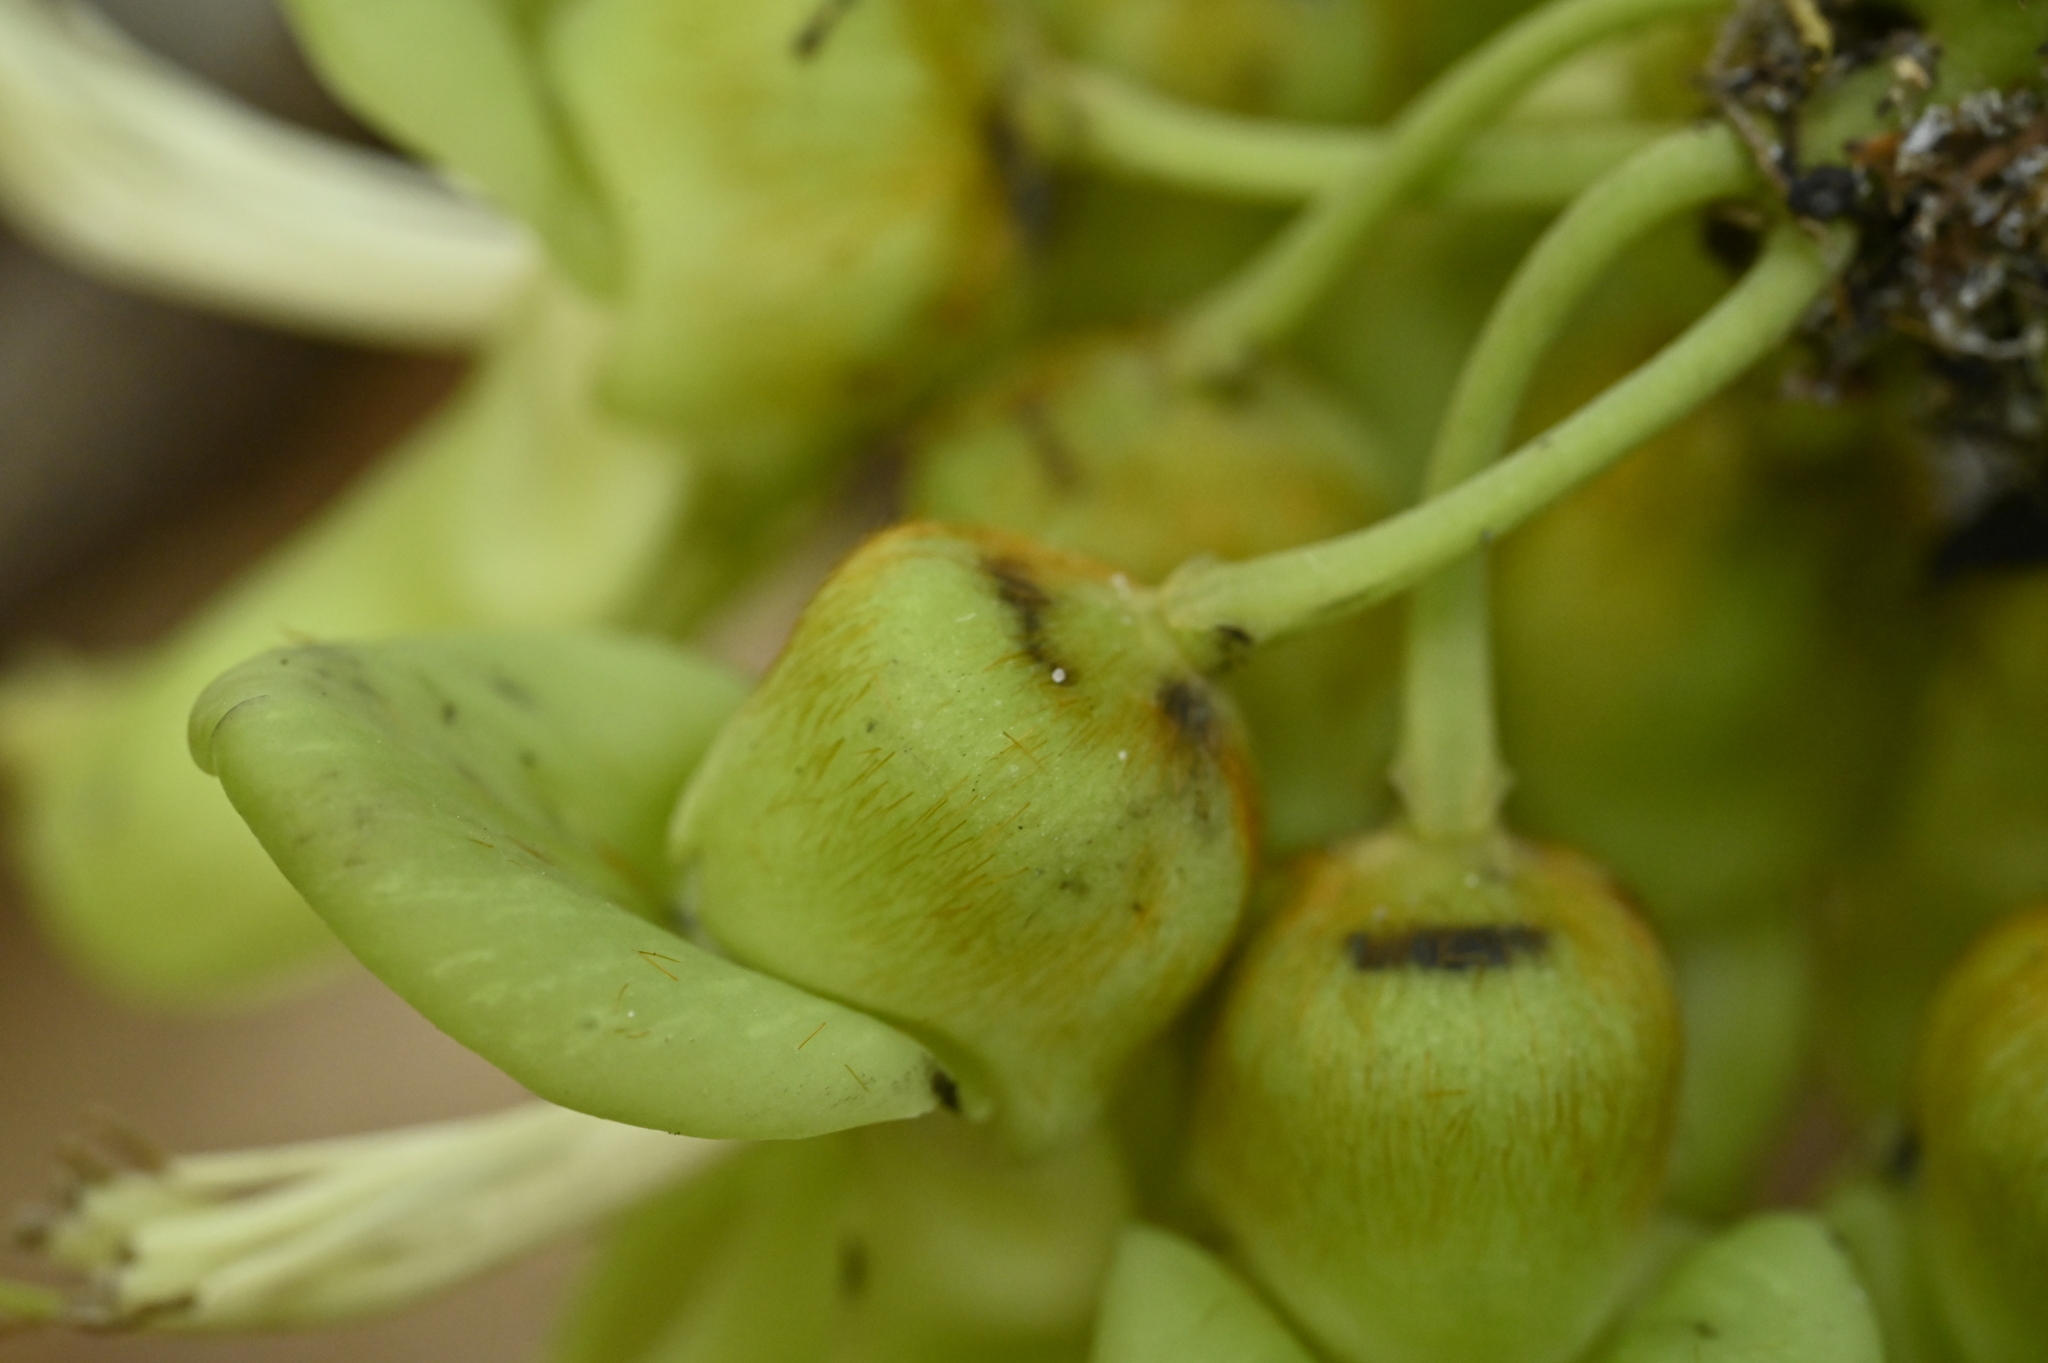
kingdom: Plantae
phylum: Tracheophyta
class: Magnoliopsida
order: Fabales
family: Fabaceae
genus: Mucuna
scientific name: Mucuna gigantea
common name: Black-bean
